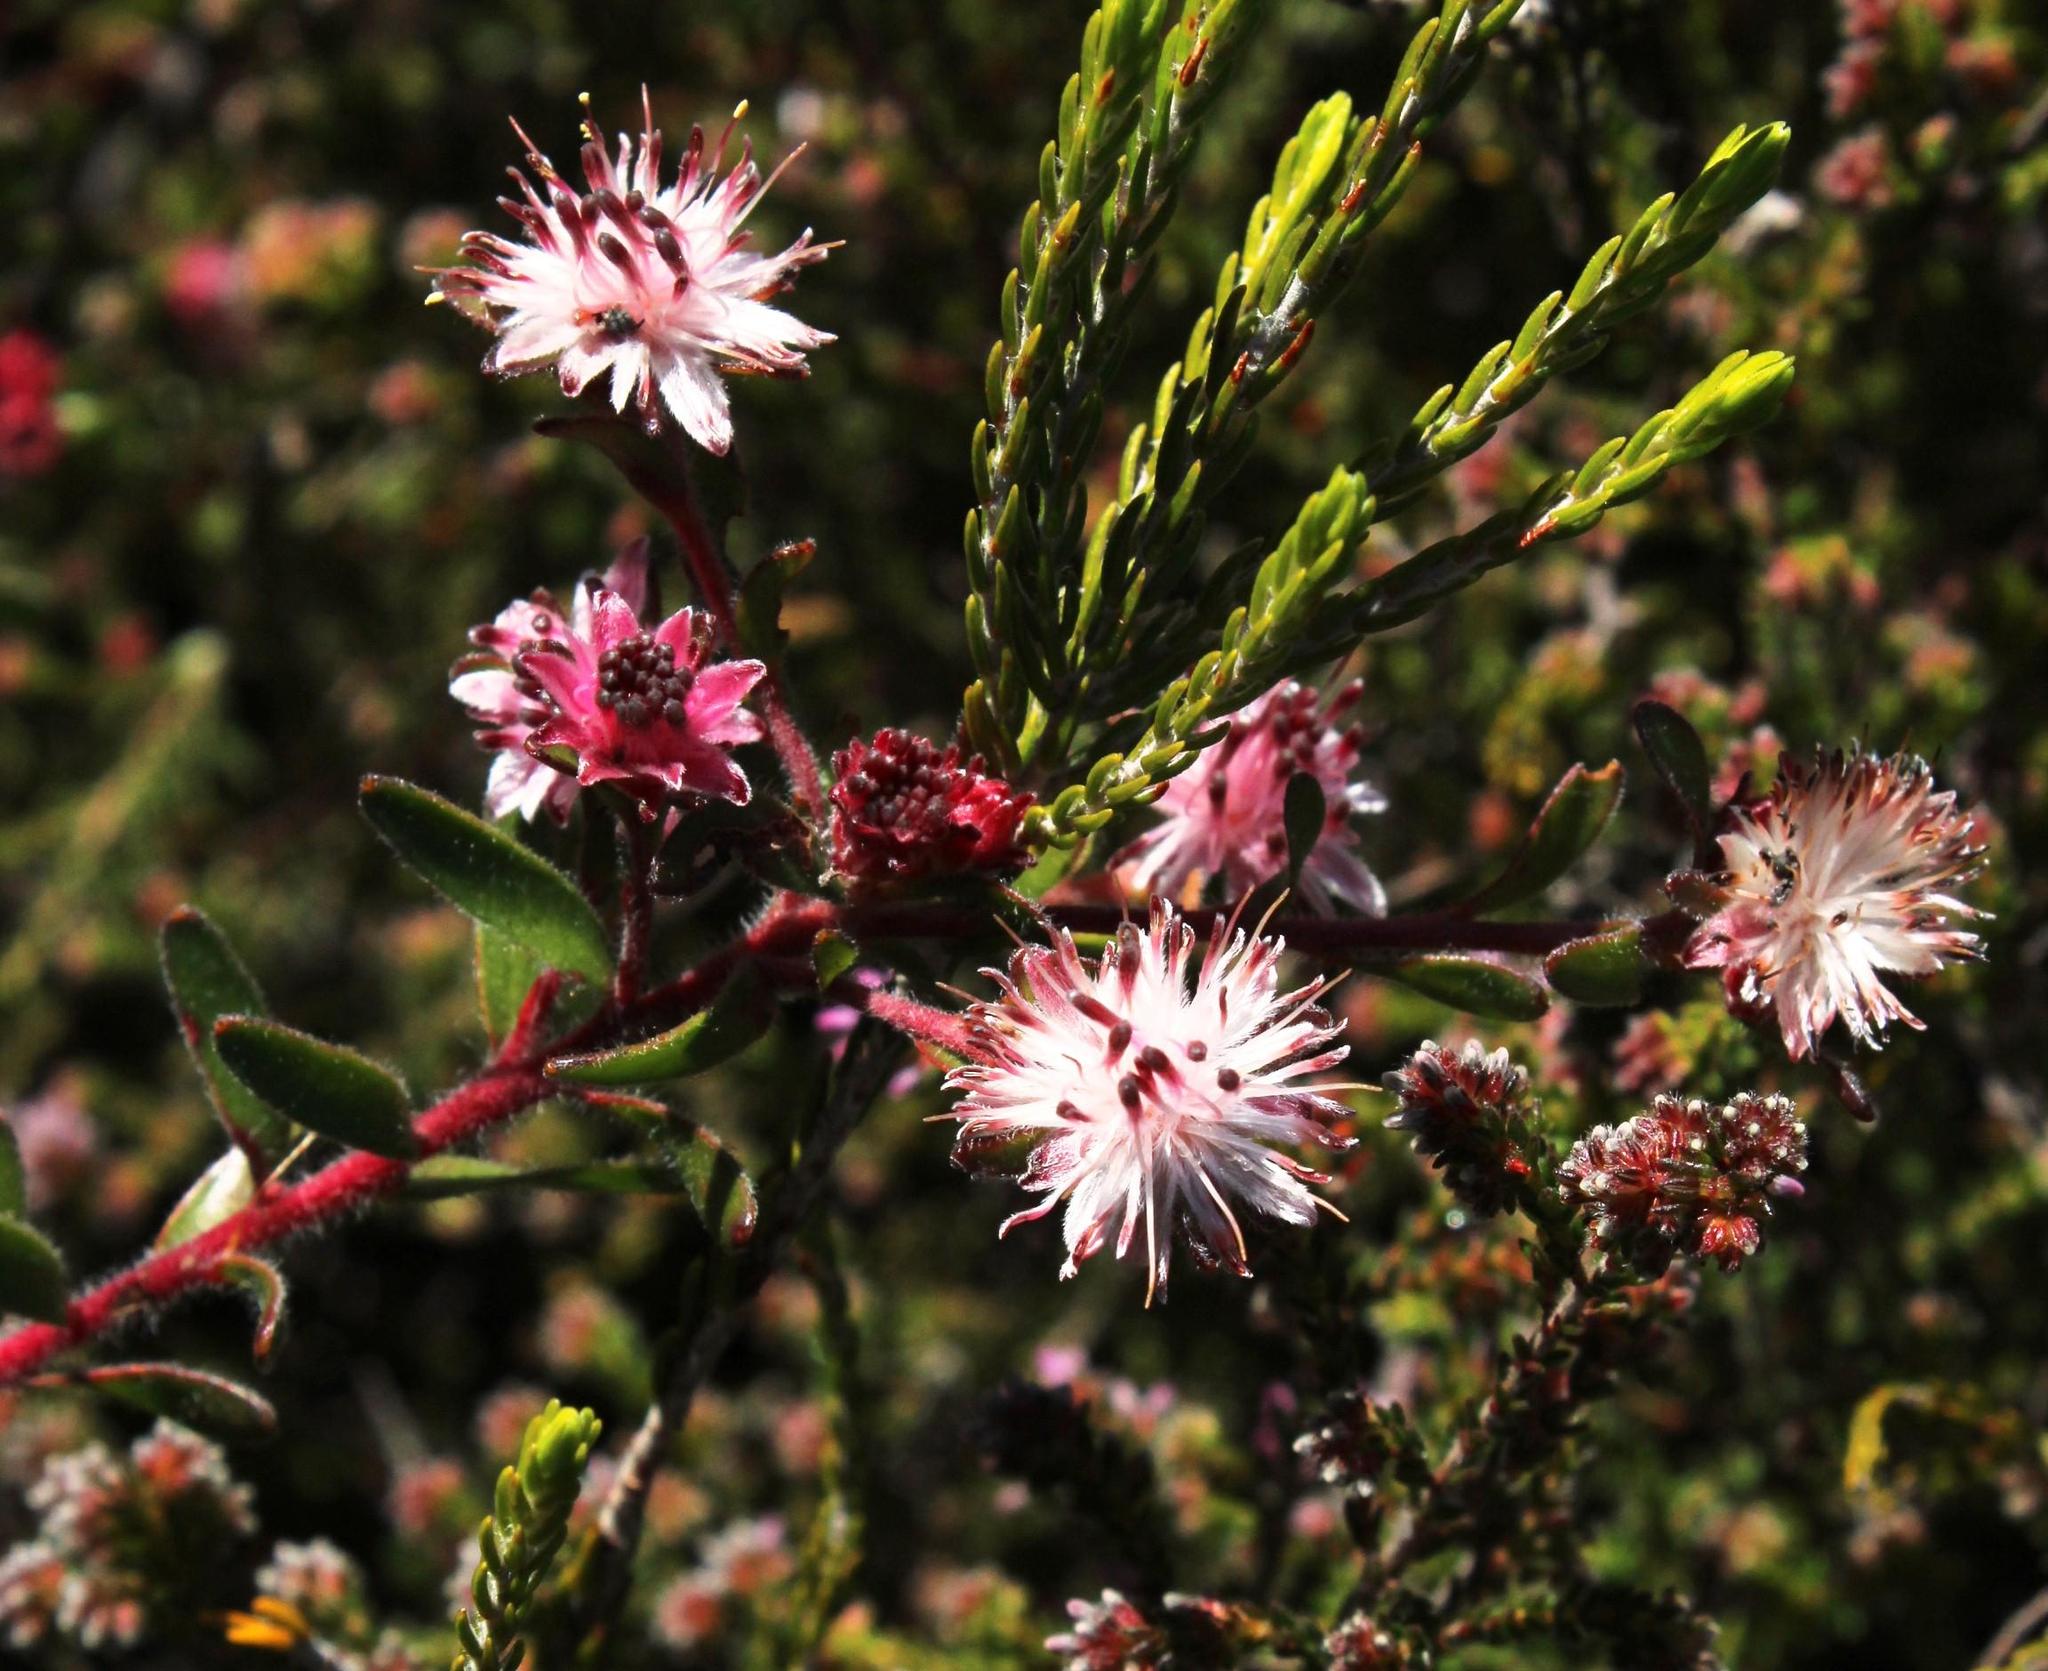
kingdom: Plantae
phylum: Tracheophyta
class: Magnoliopsida
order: Proteales
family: Proteaceae
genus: Diastella
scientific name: Diastella divaricata
